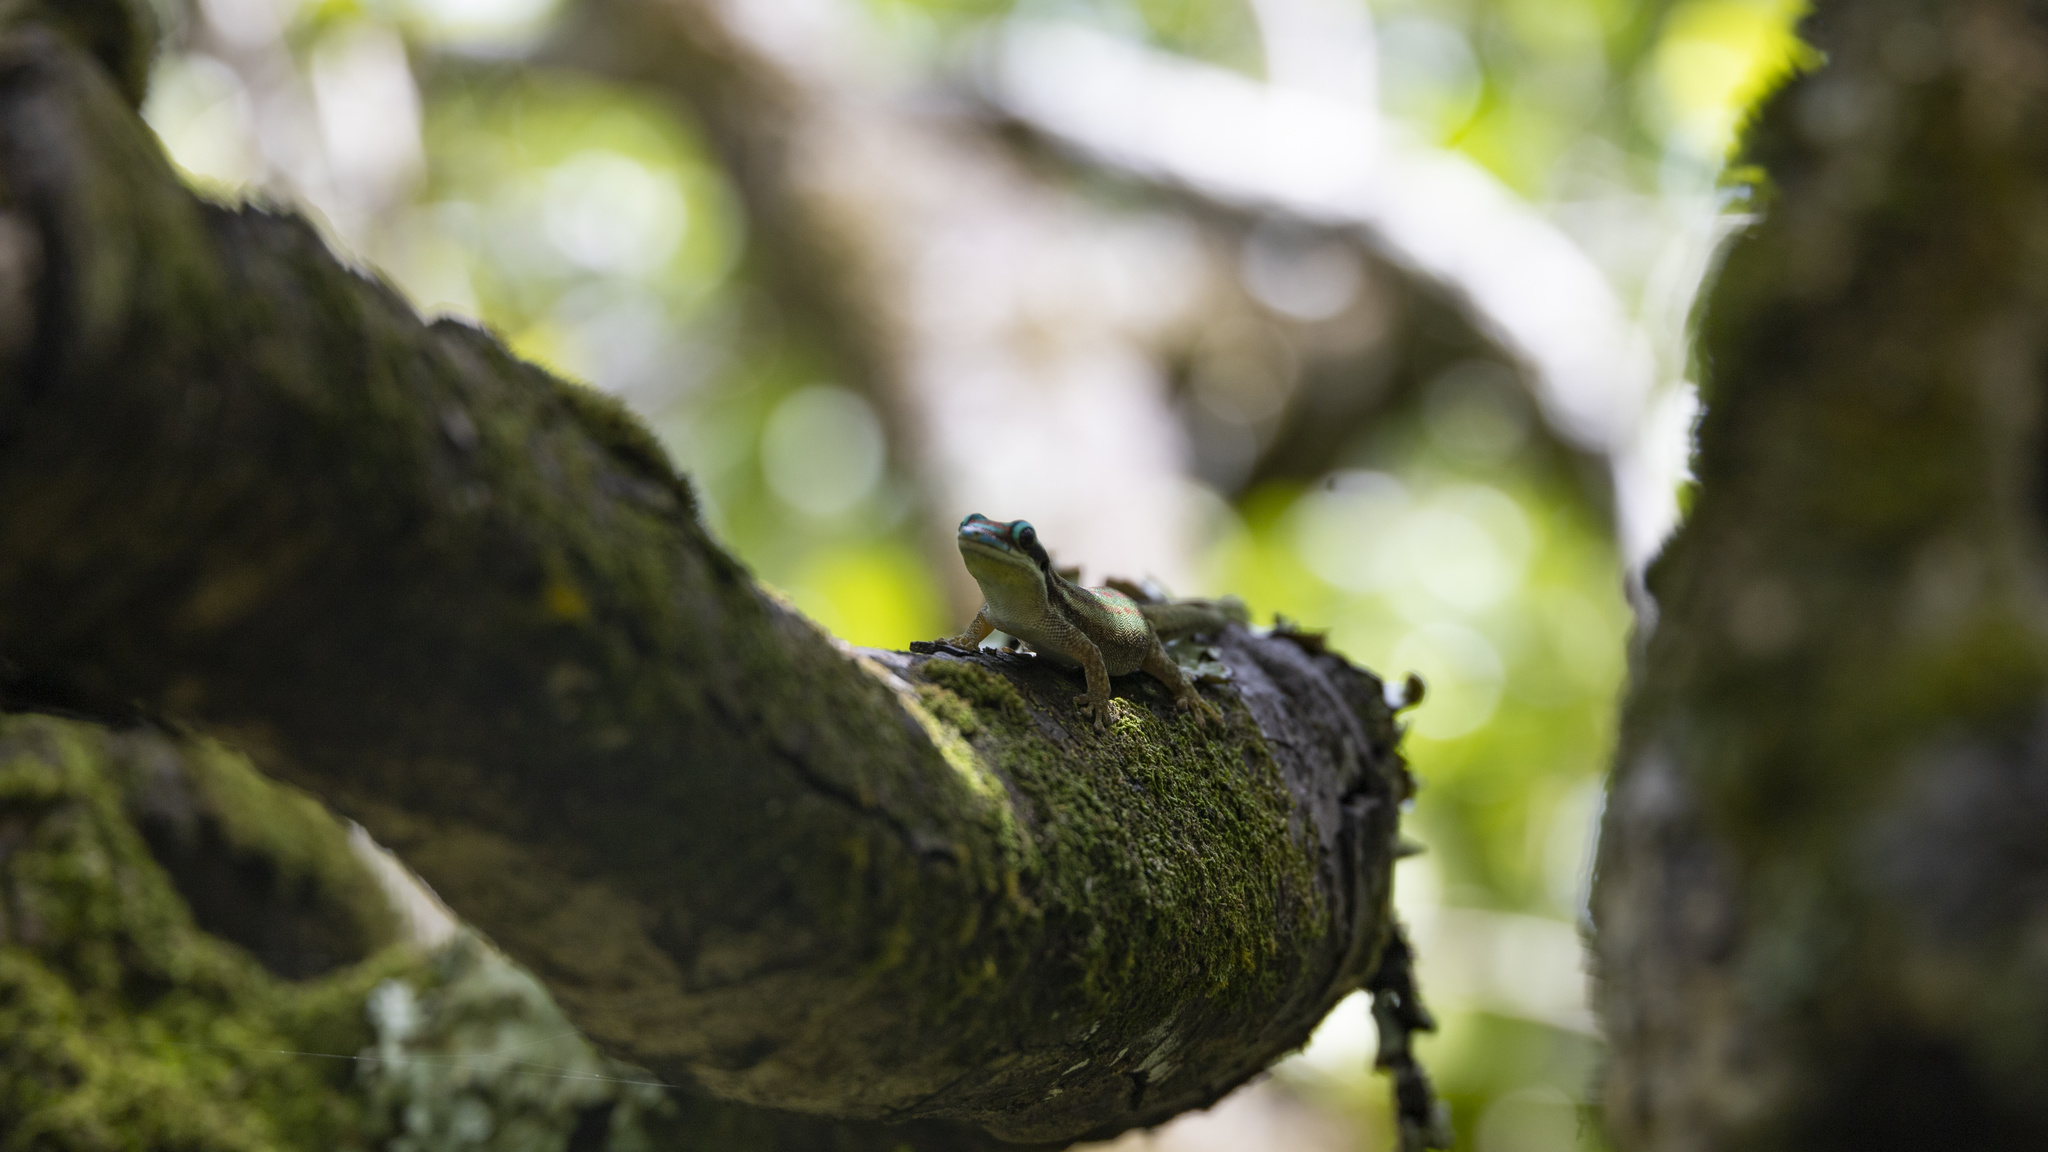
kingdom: Animalia
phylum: Chordata
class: Squamata
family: Gekkonidae
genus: Phelsuma
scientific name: Phelsuma ornata
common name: Ornate day gecko
